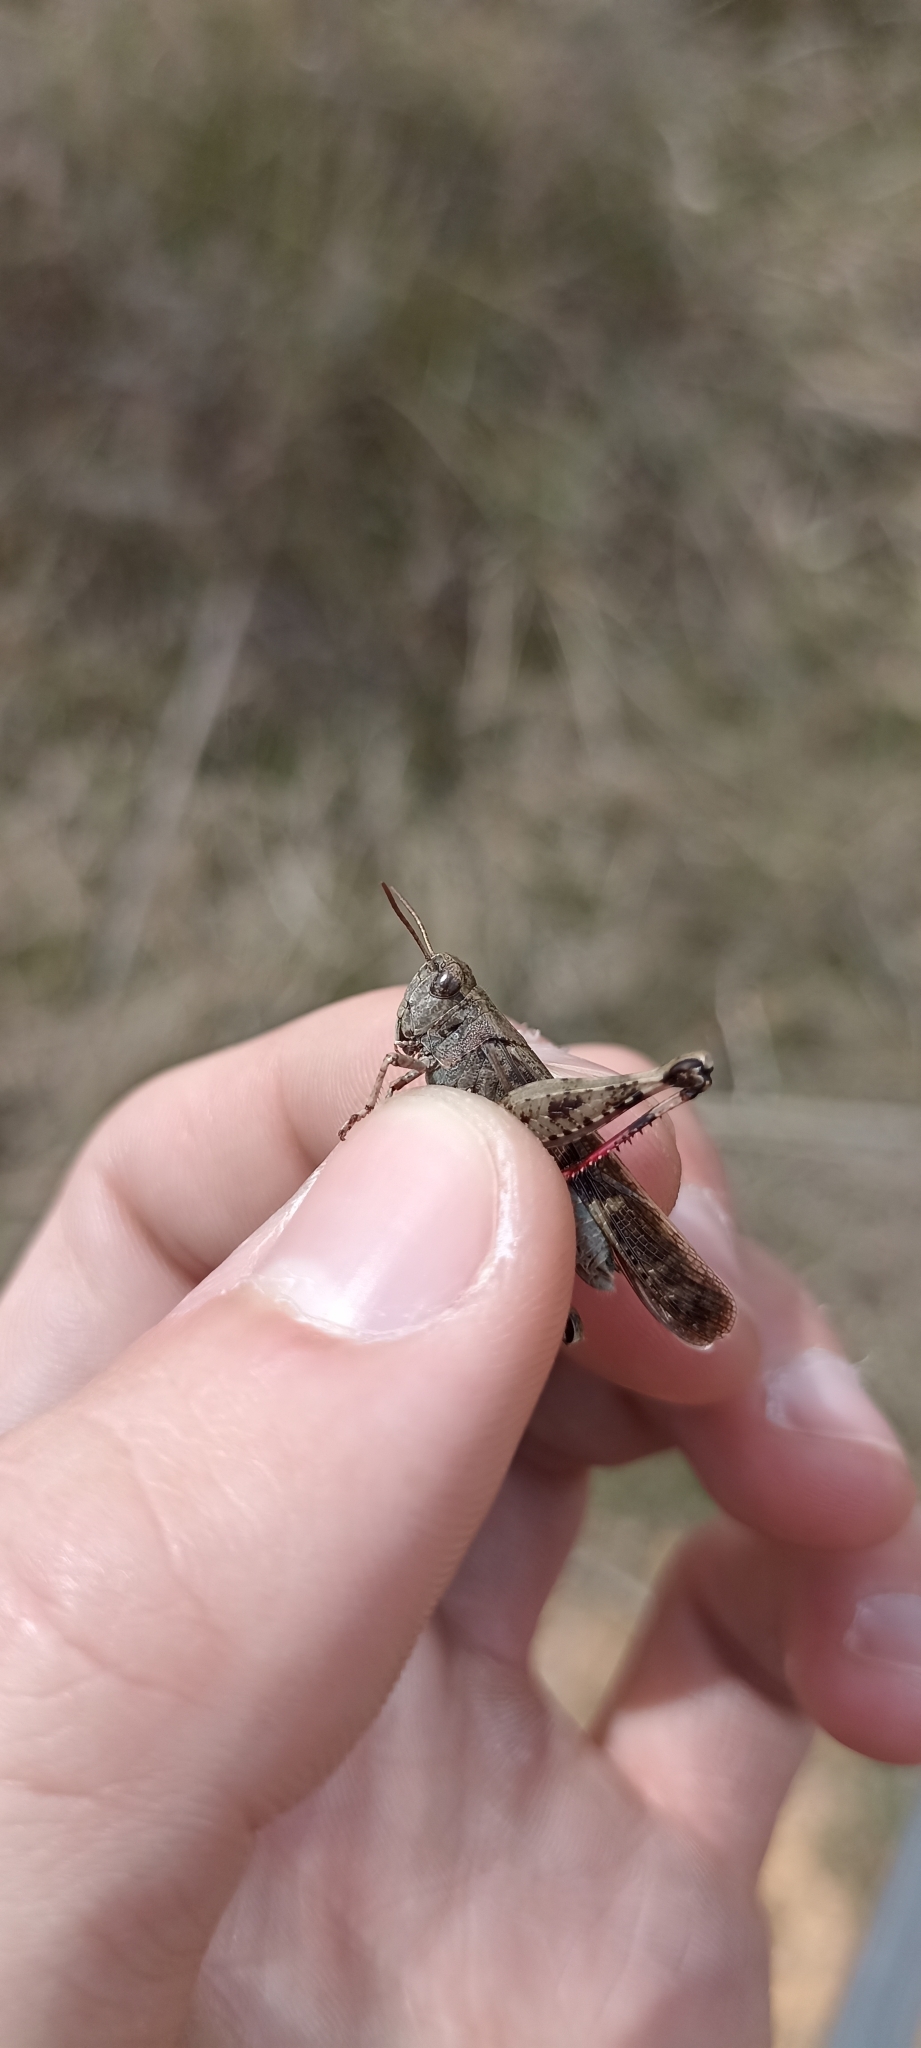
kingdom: Animalia
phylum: Arthropoda
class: Insecta
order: Orthoptera
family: Acrididae
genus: Aiolopus
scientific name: Aiolopus strepens
